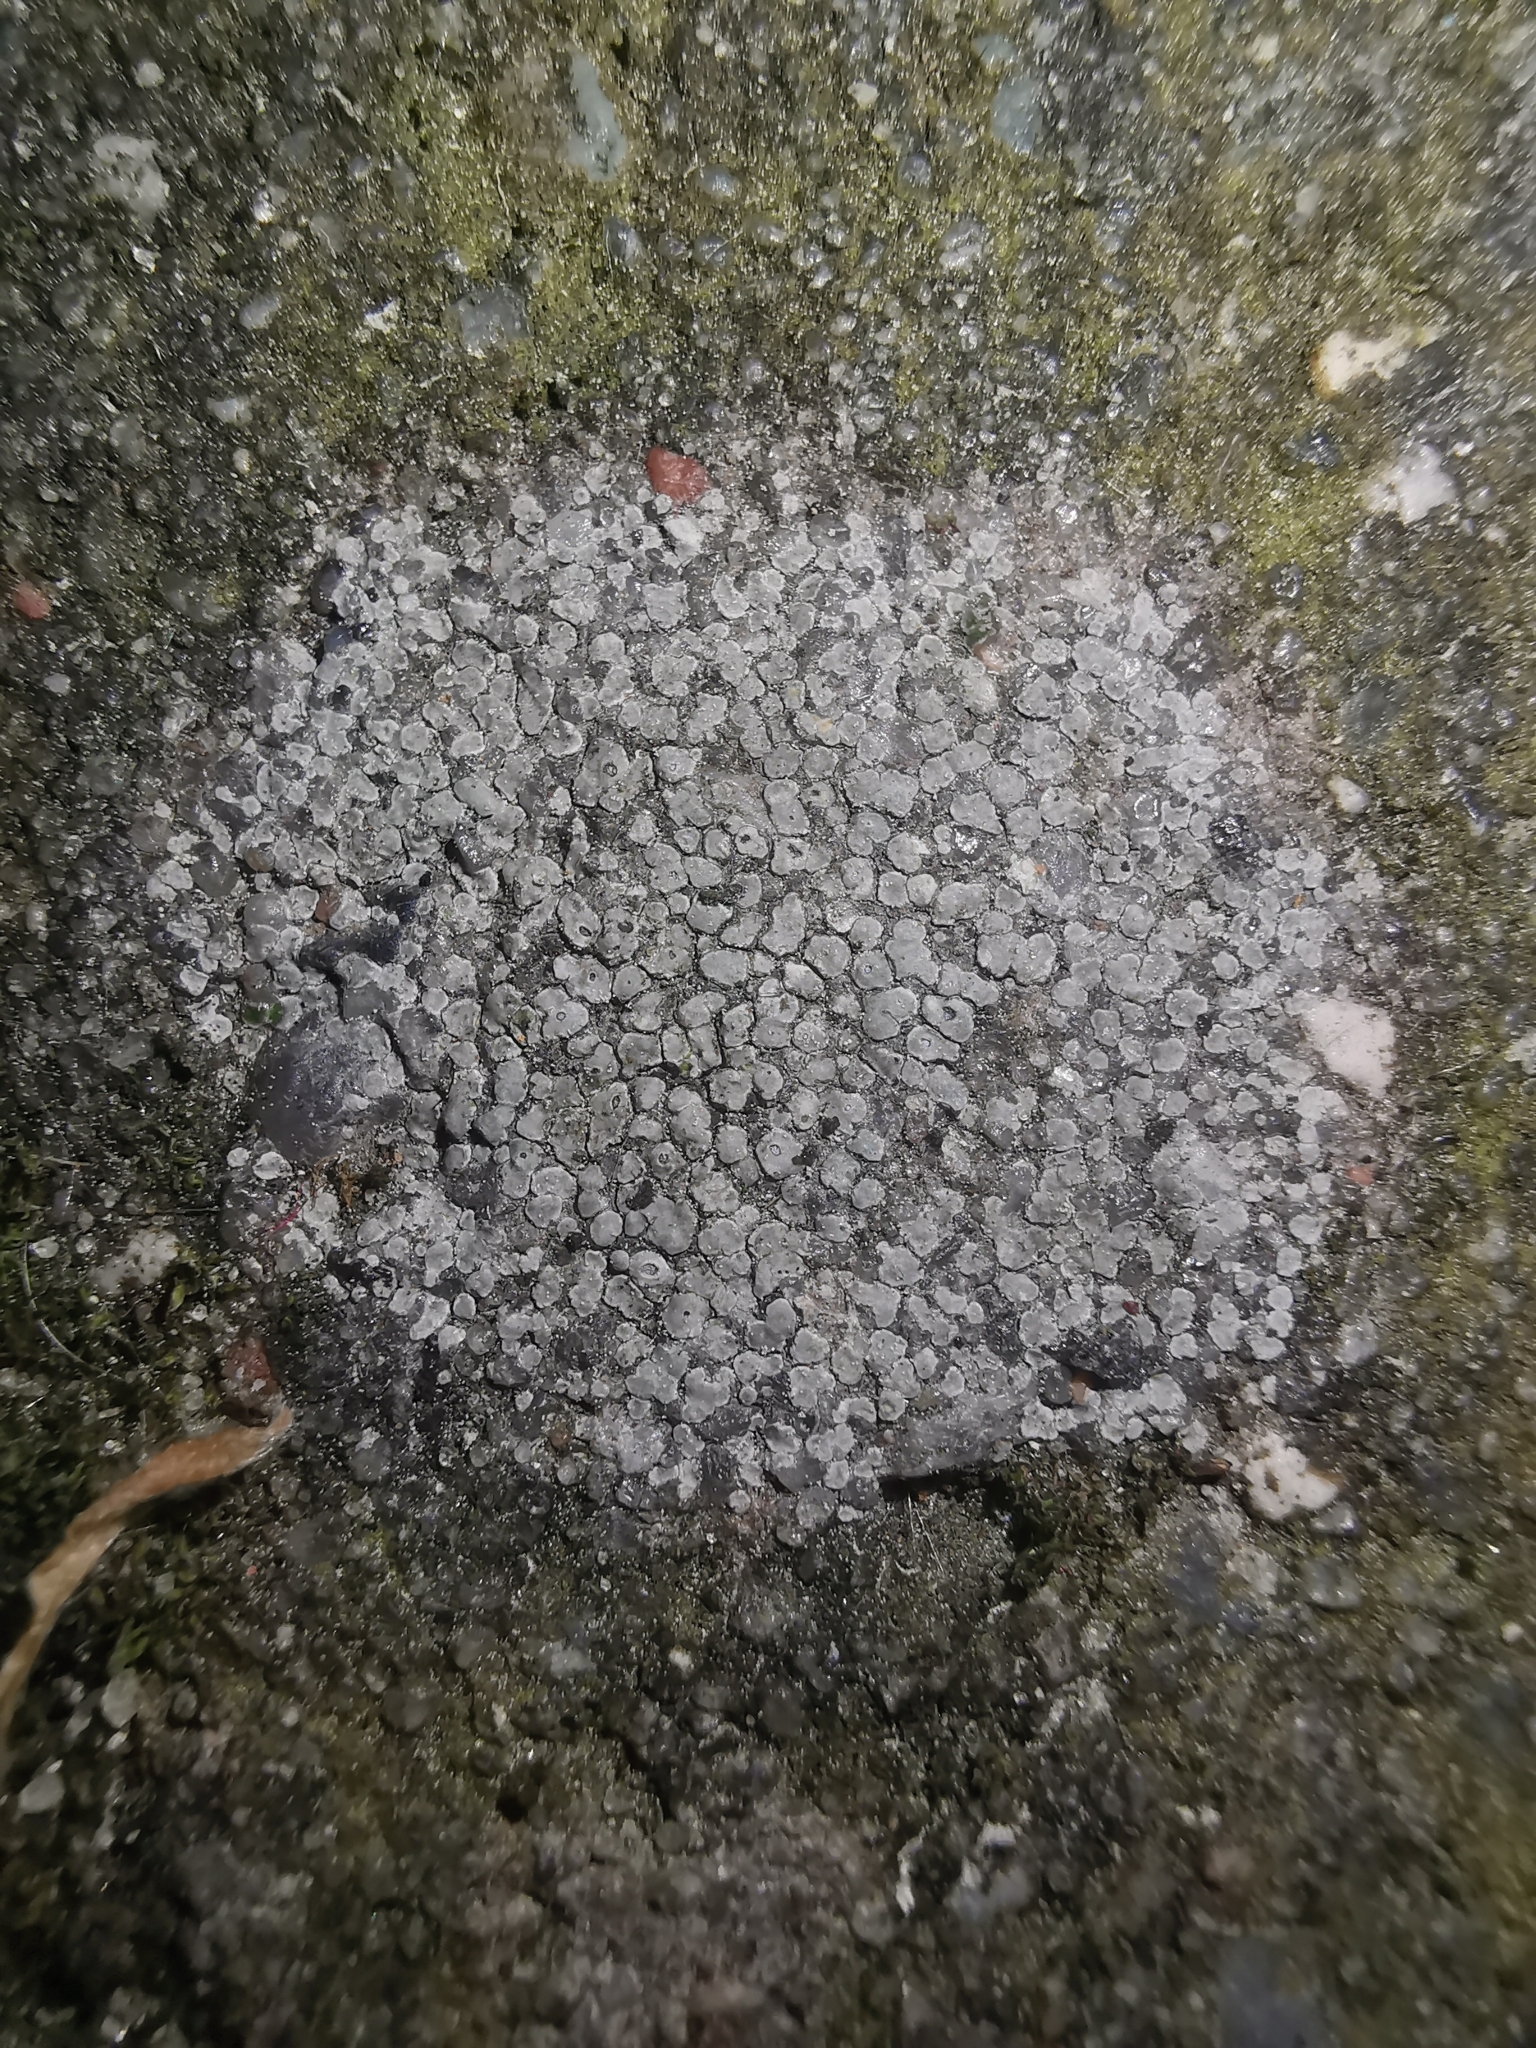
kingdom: Fungi
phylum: Ascomycota
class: Lecanoromycetes
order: Pertusariales
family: Megasporaceae
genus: Circinaria
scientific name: Circinaria contorta
